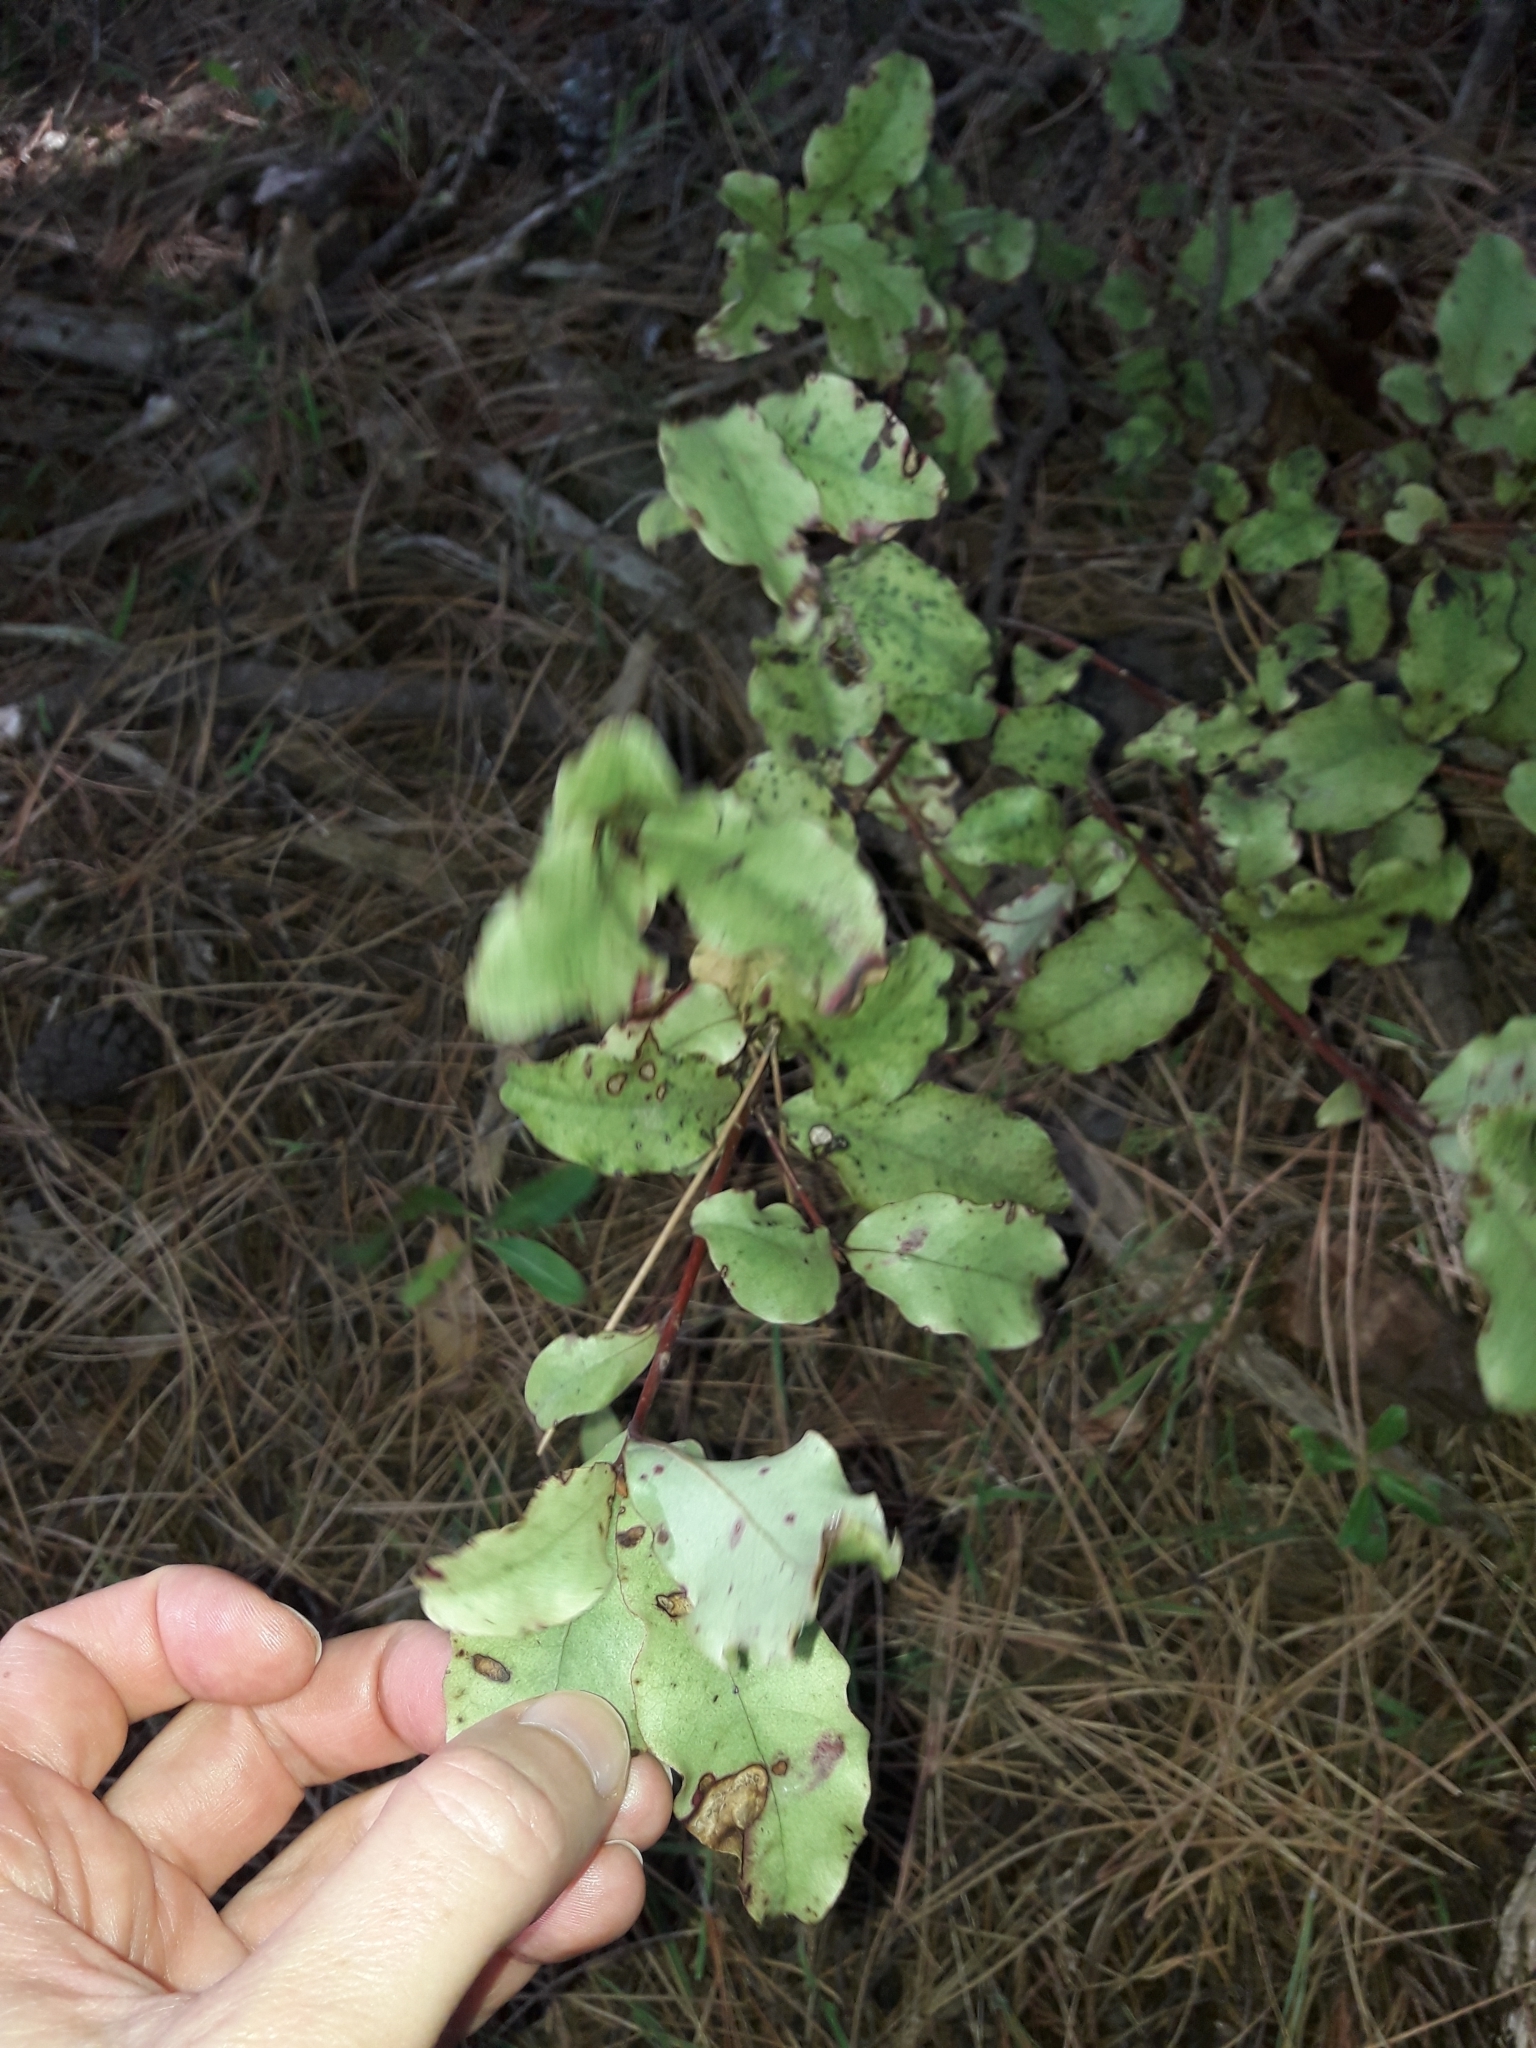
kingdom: Plantae
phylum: Tracheophyta
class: Magnoliopsida
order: Ericales
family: Primulaceae
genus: Myrsine
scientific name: Myrsine australis
